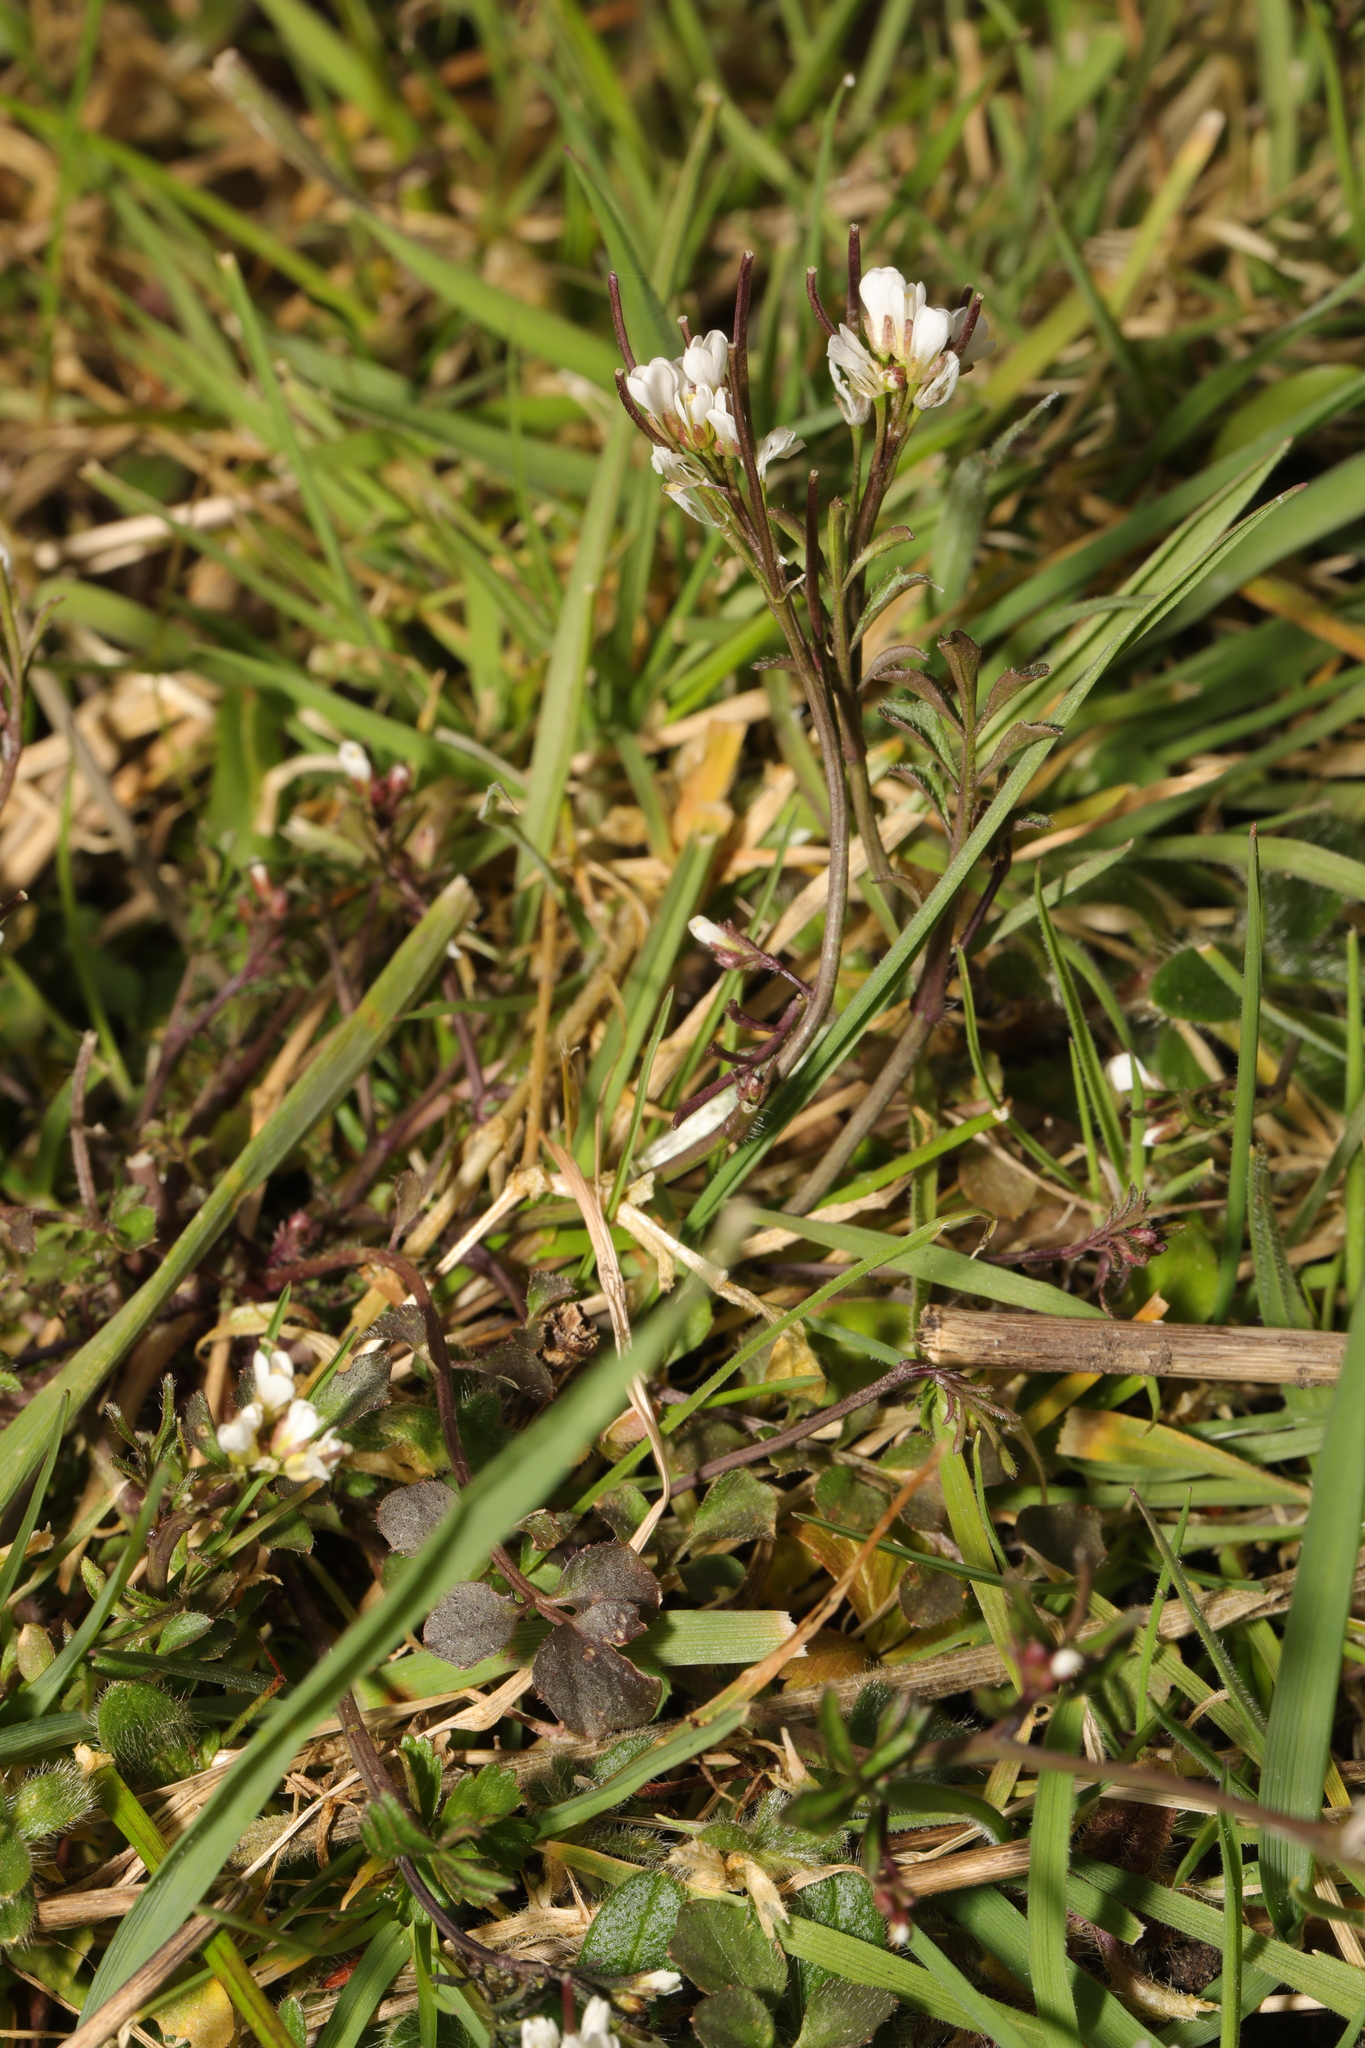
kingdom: Plantae
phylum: Tracheophyta
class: Magnoliopsida
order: Brassicales
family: Brassicaceae
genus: Cardamine
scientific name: Cardamine hirsuta
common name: Hairy bittercress
